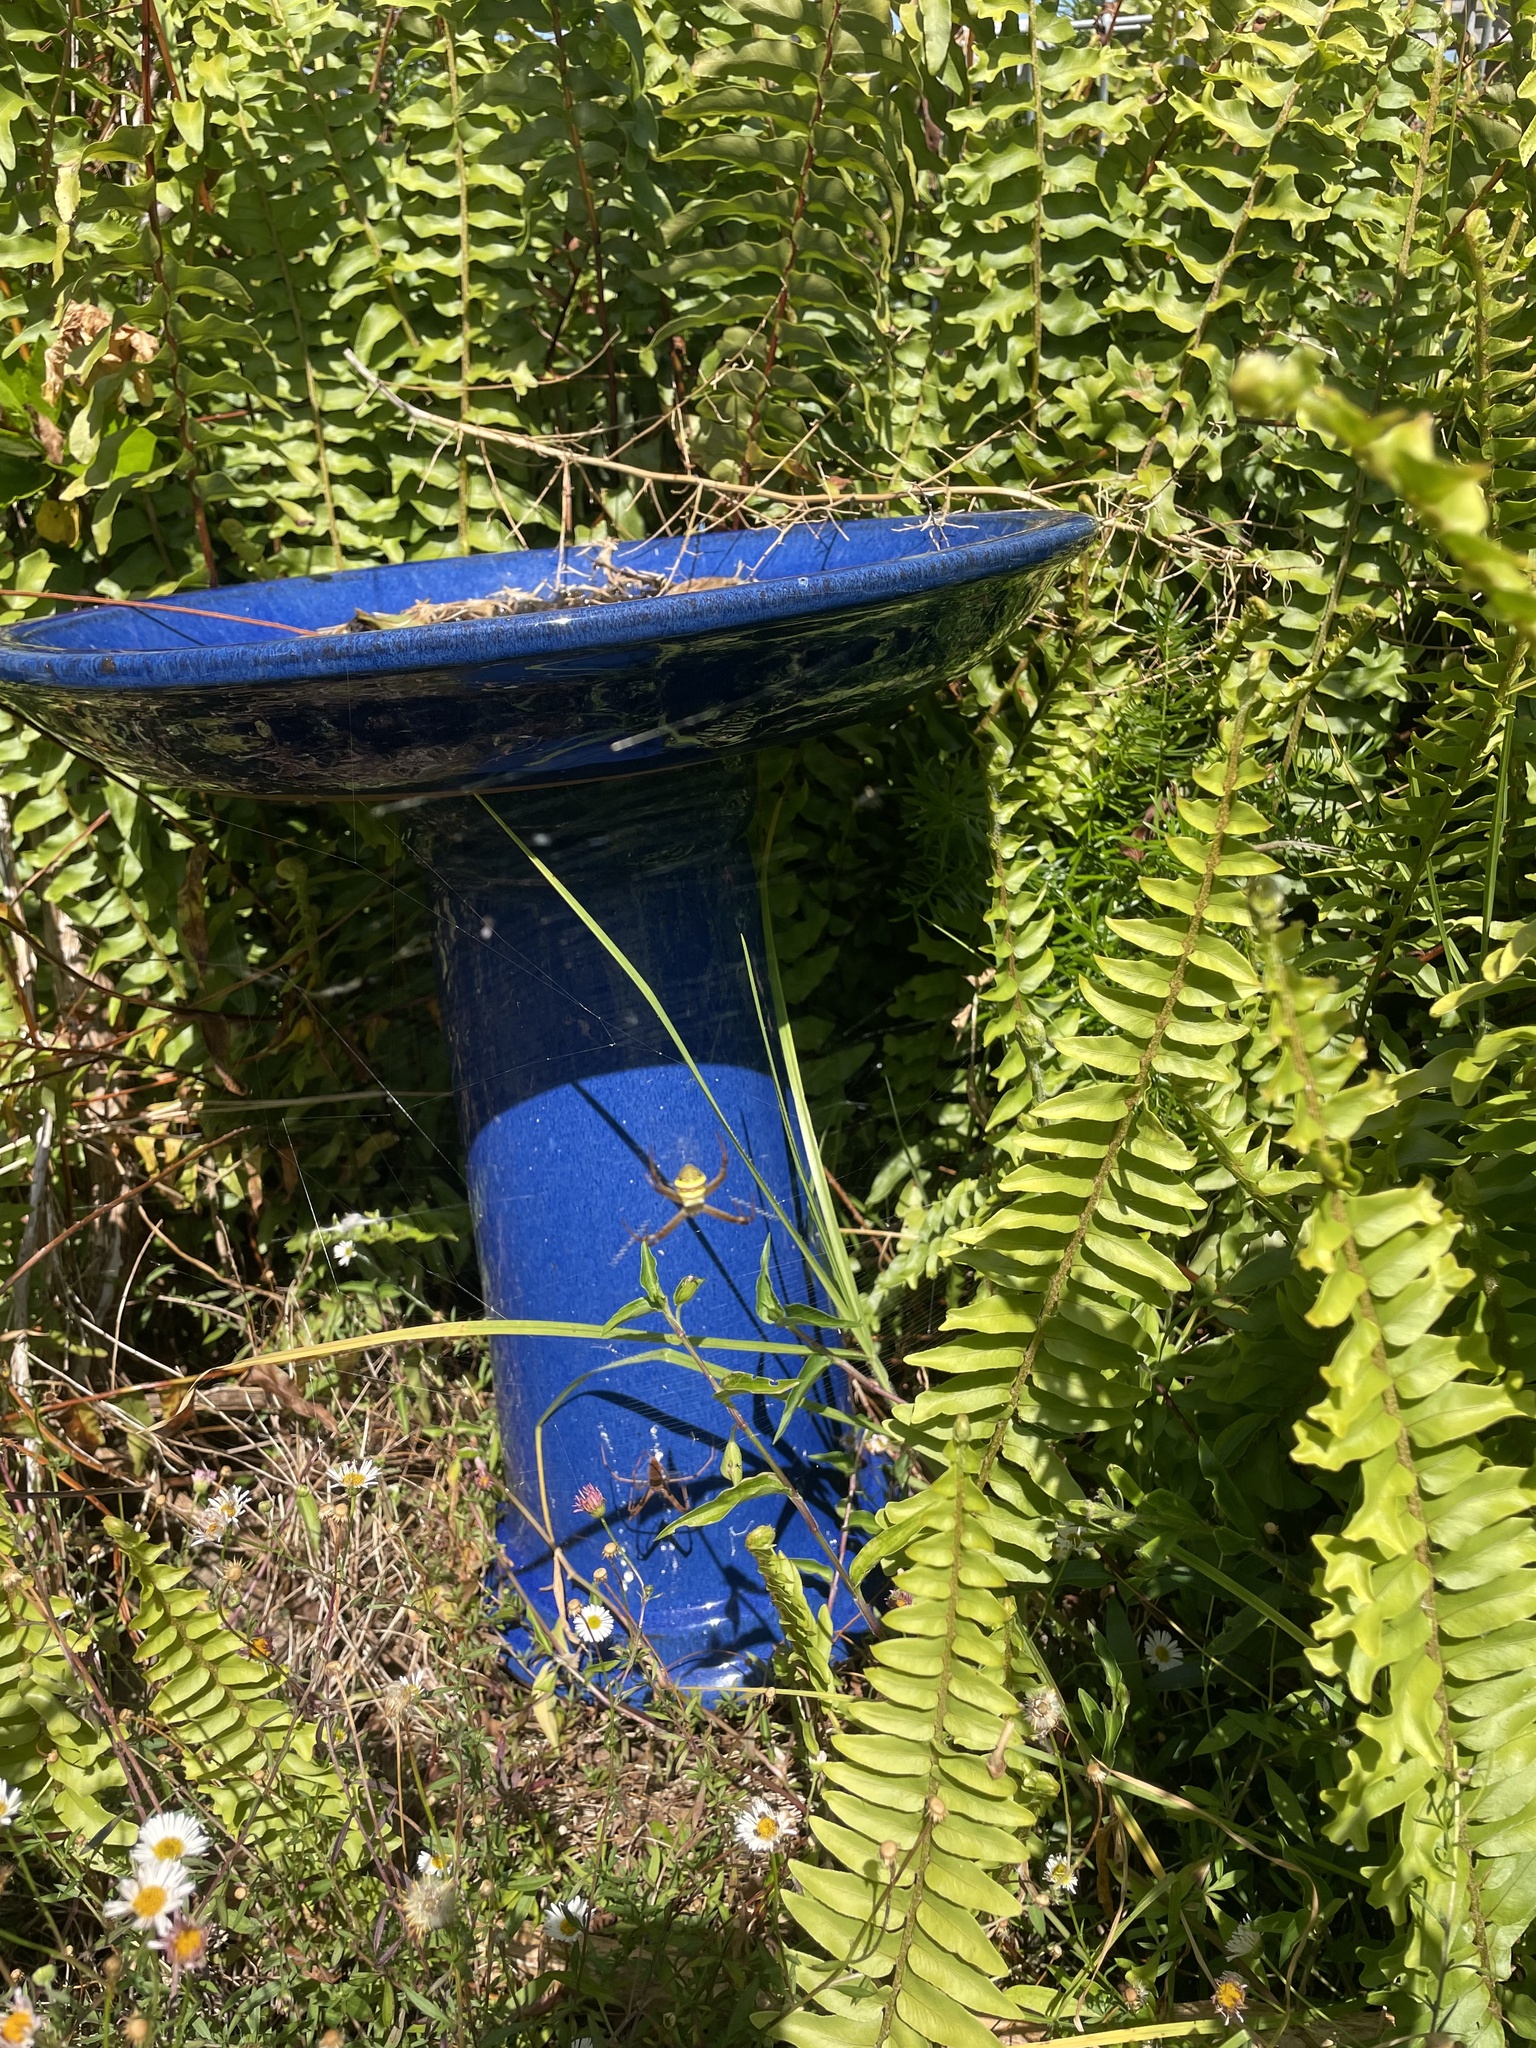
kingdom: Animalia
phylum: Arthropoda
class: Arachnida
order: Araneae
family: Araneidae
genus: Argiope
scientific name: Argiope keyserlingi
